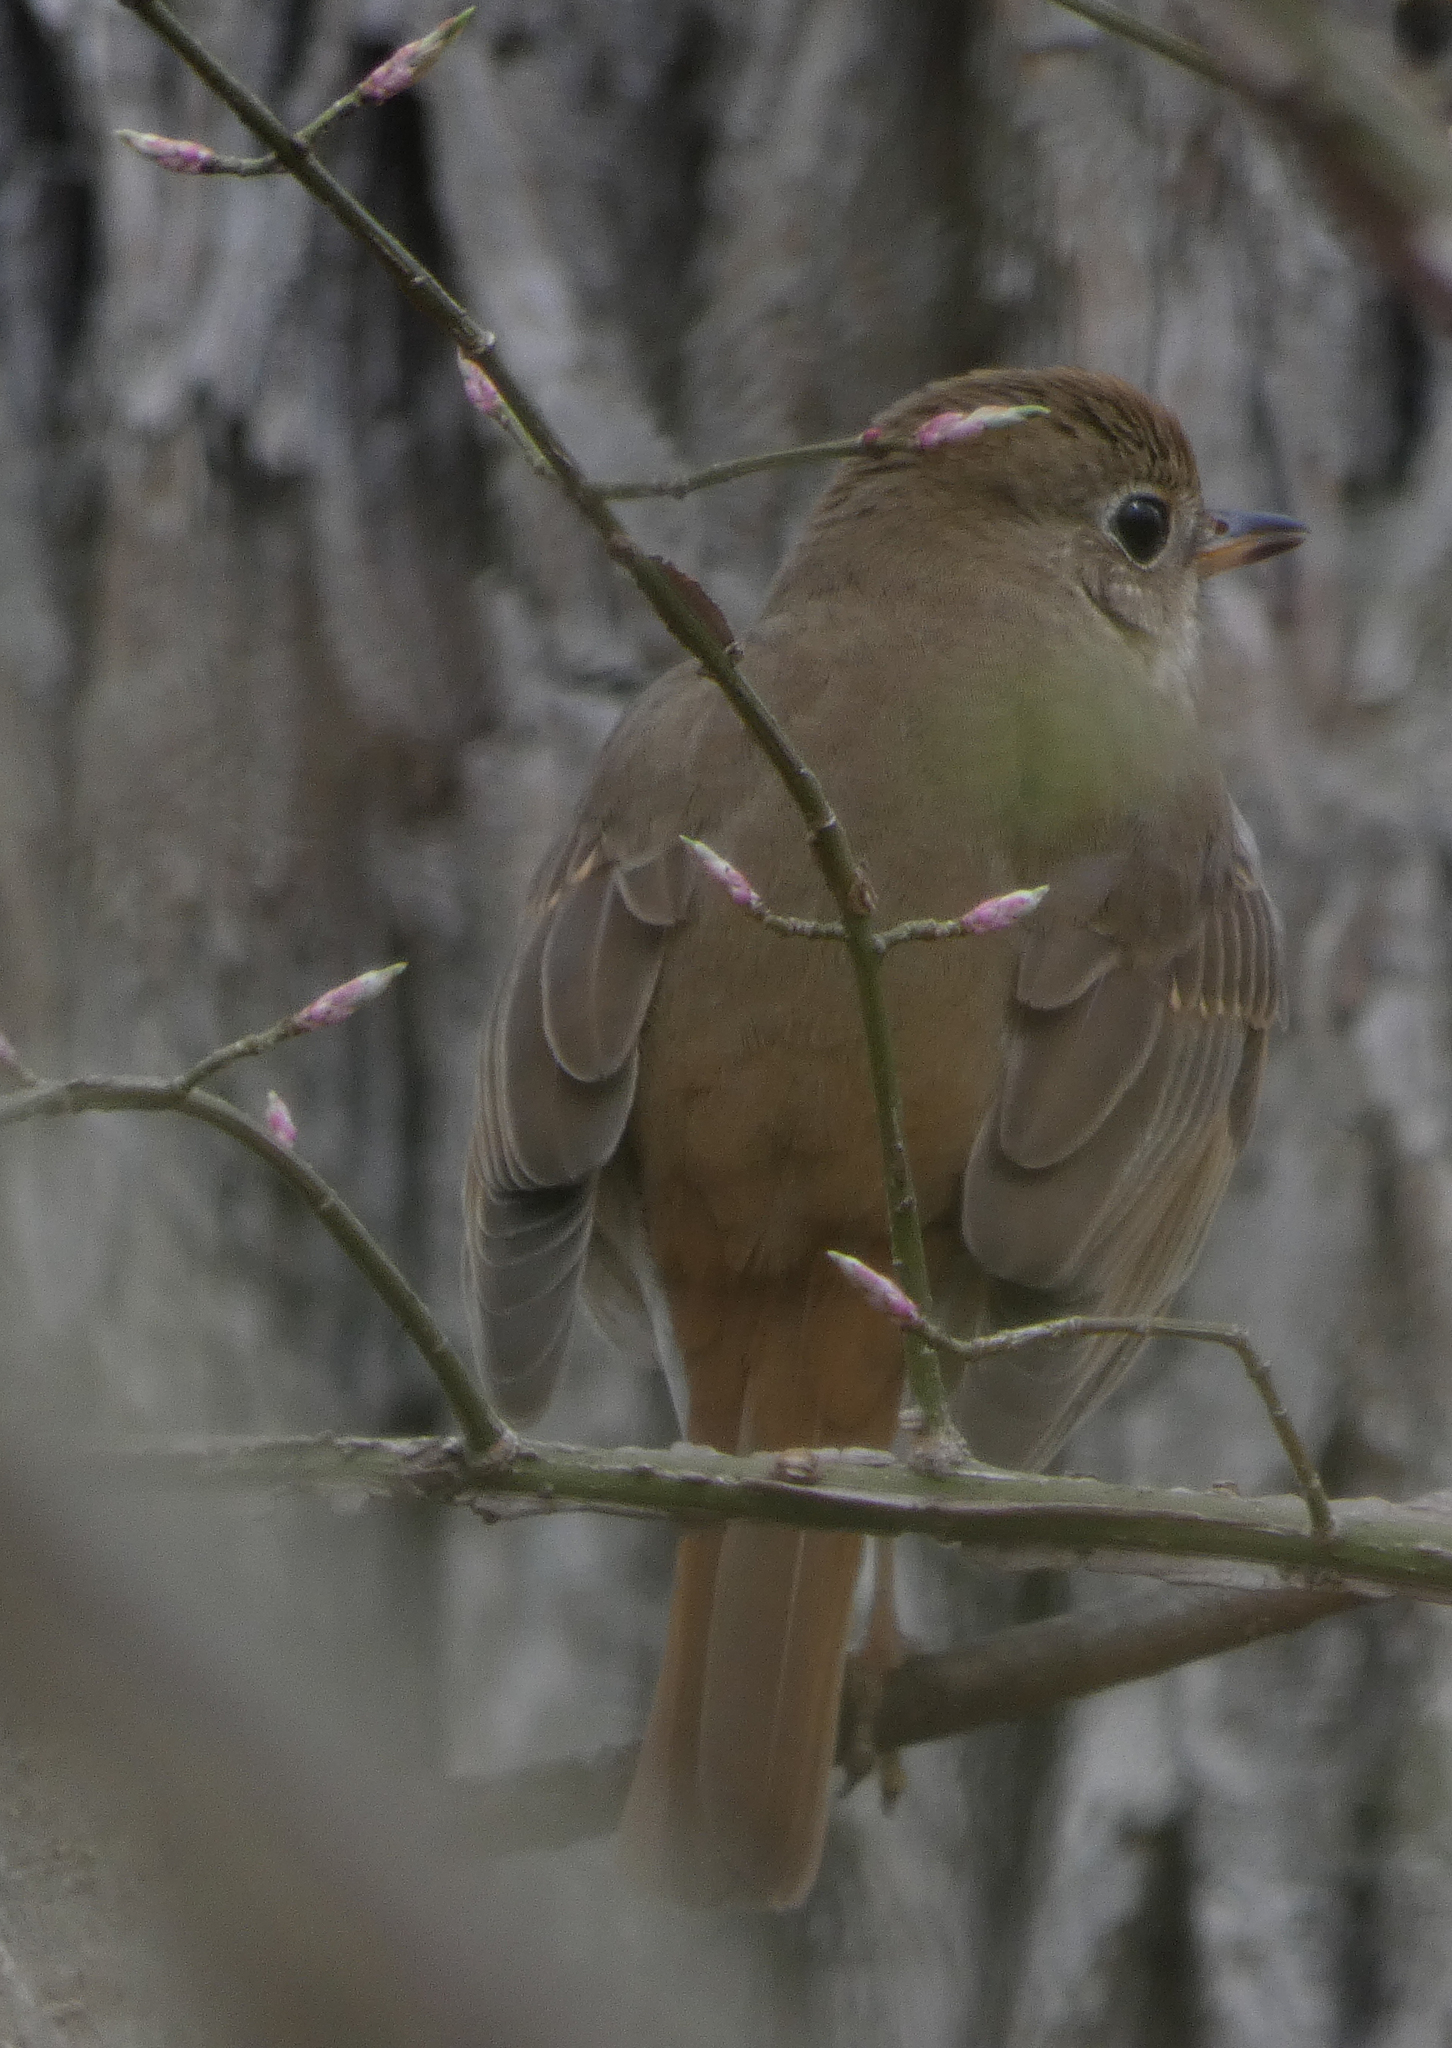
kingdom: Animalia
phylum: Chordata
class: Aves
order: Passeriformes
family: Turdidae
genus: Catharus
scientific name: Catharus guttatus
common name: Hermit thrush
